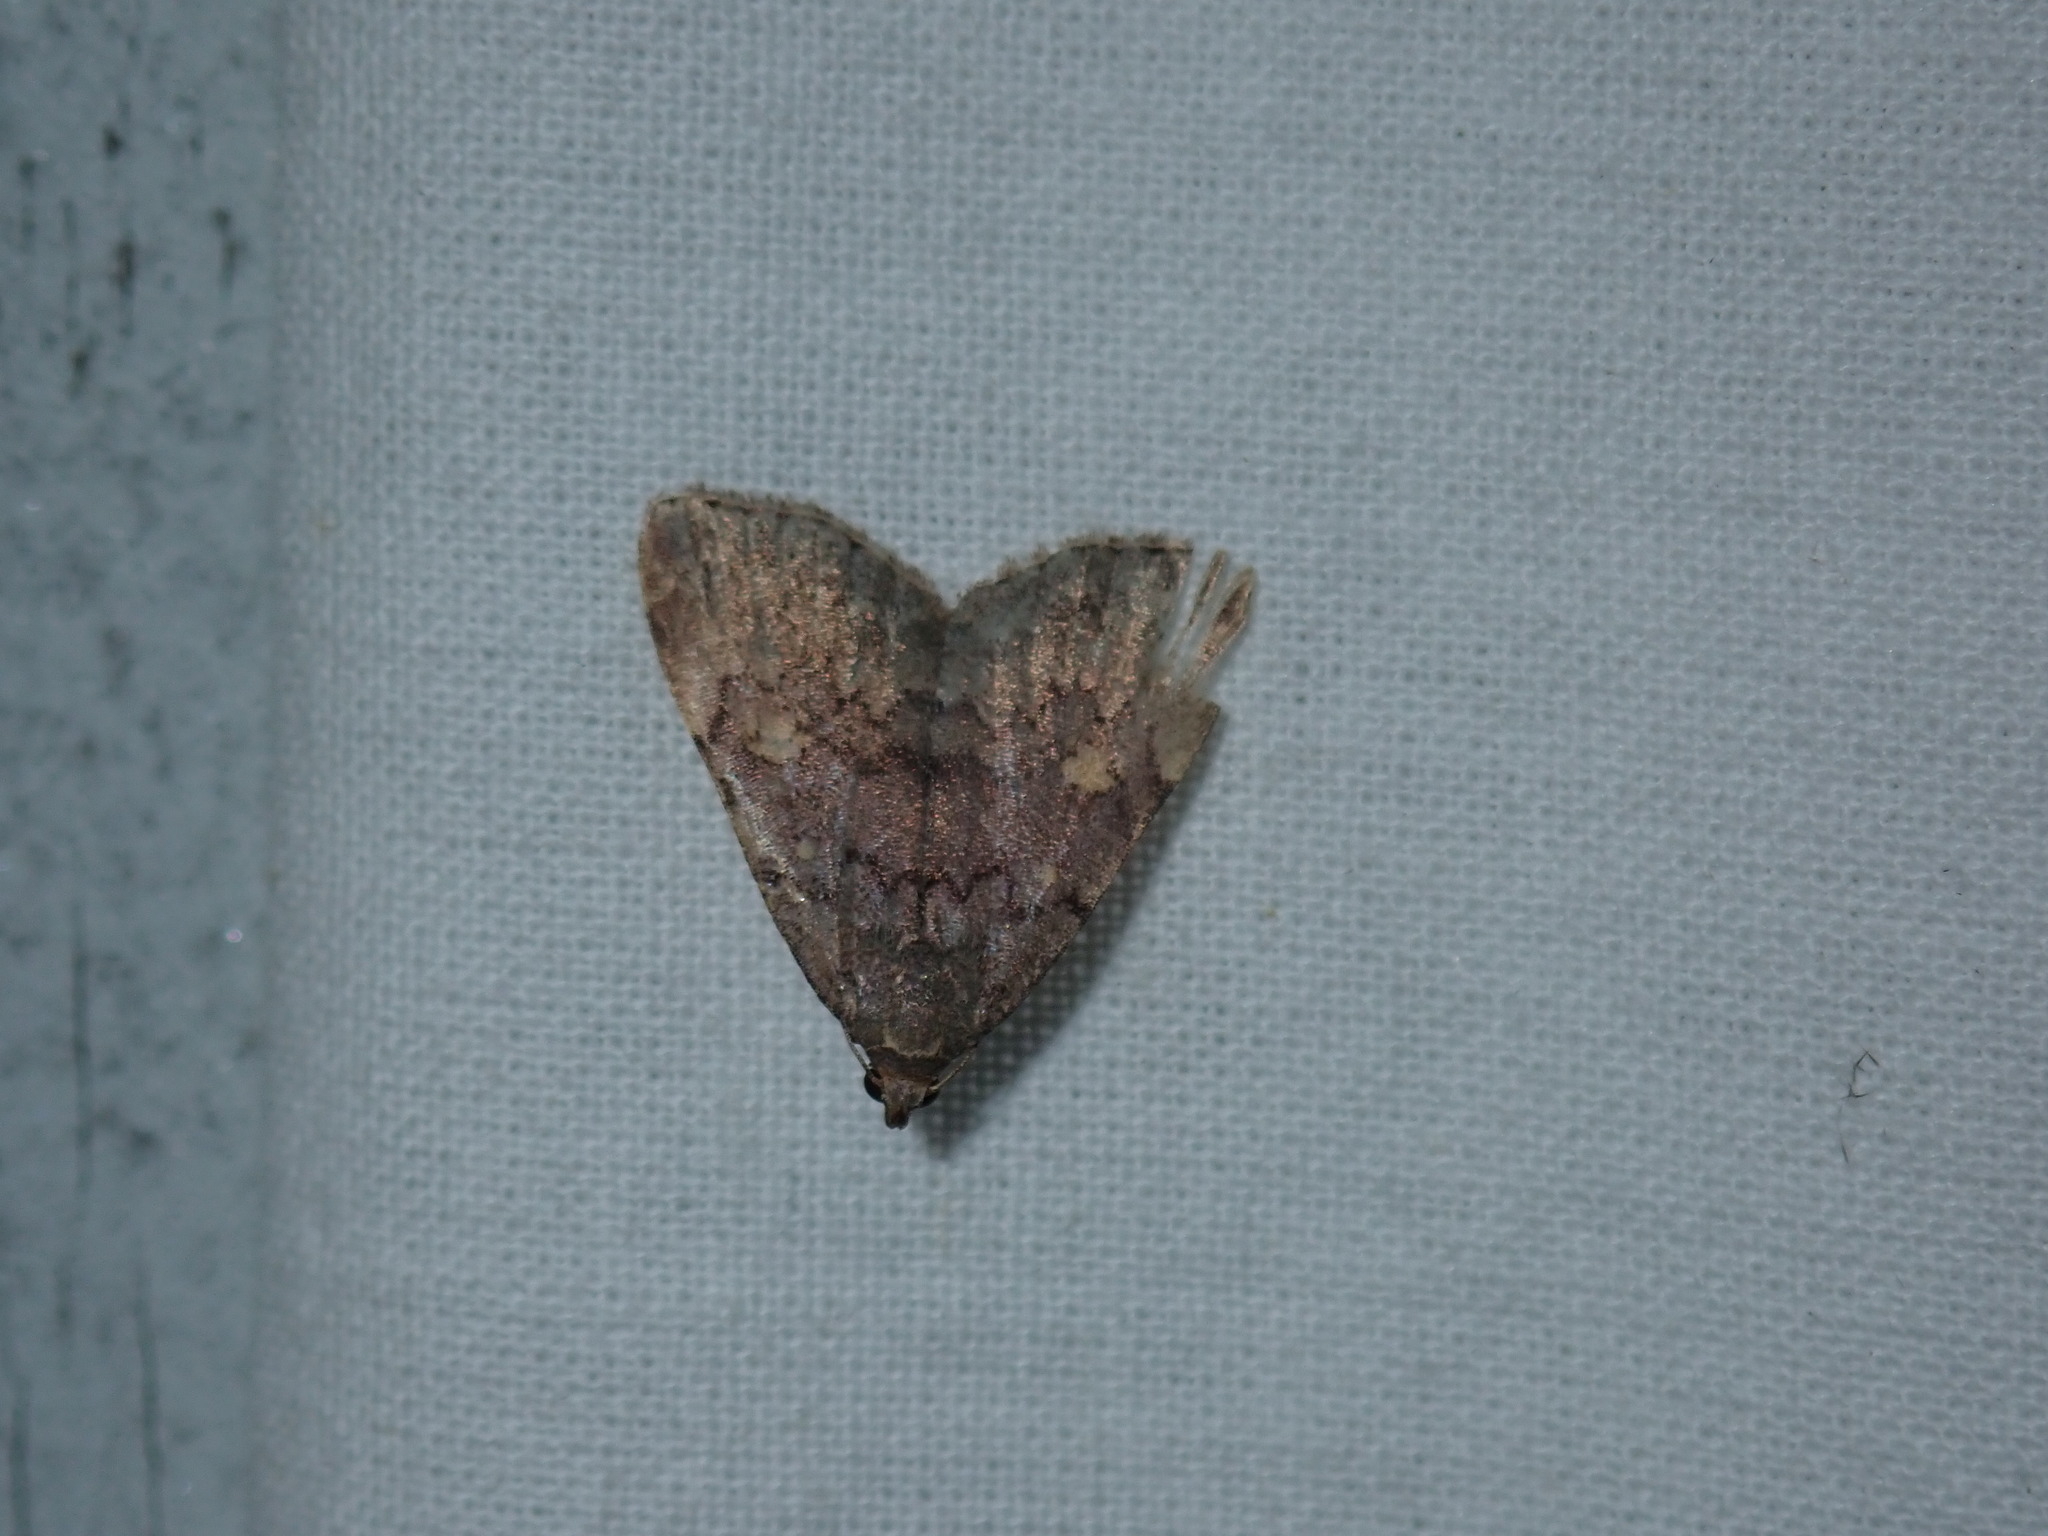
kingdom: Animalia
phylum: Arthropoda
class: Insecta
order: Lepidoptera
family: Erebidae
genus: Idia
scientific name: Idia aemula
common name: Common idia moth
